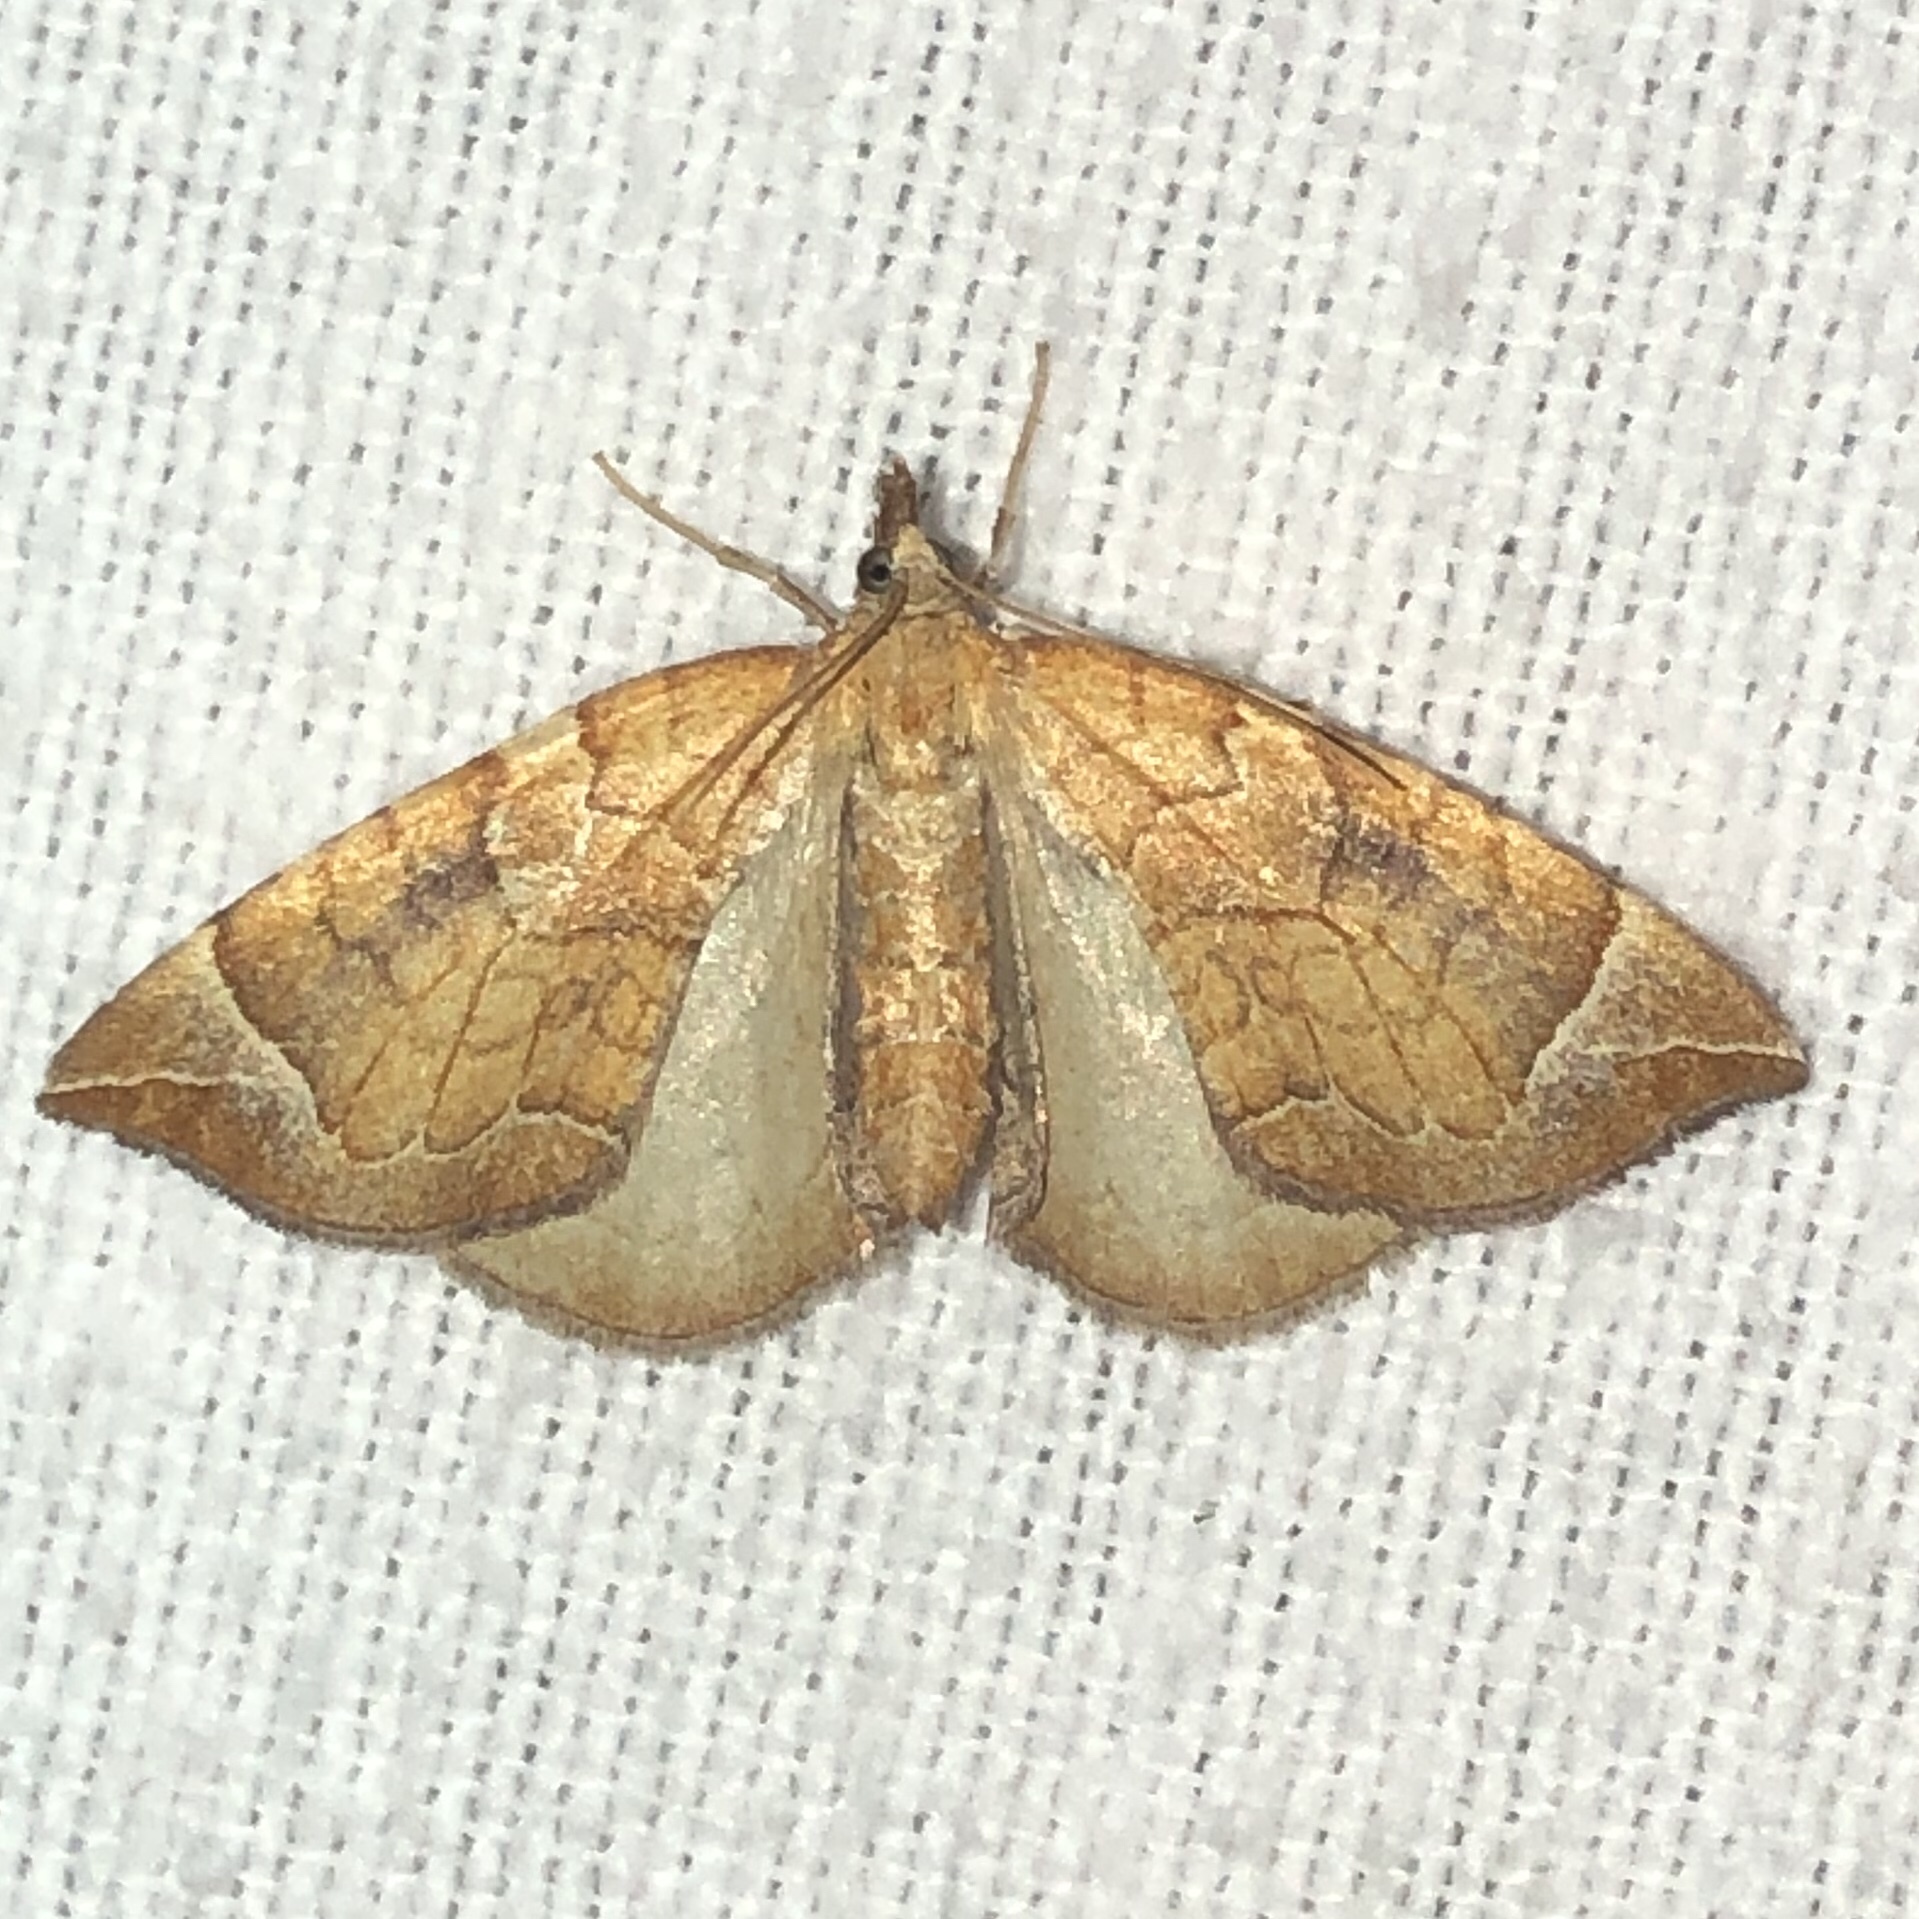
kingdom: Animalia
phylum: Arthropoda
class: Insecta
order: Lepidoptera
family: Geometridae
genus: Eulithis
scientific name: Eulithis testata
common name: Chevron
